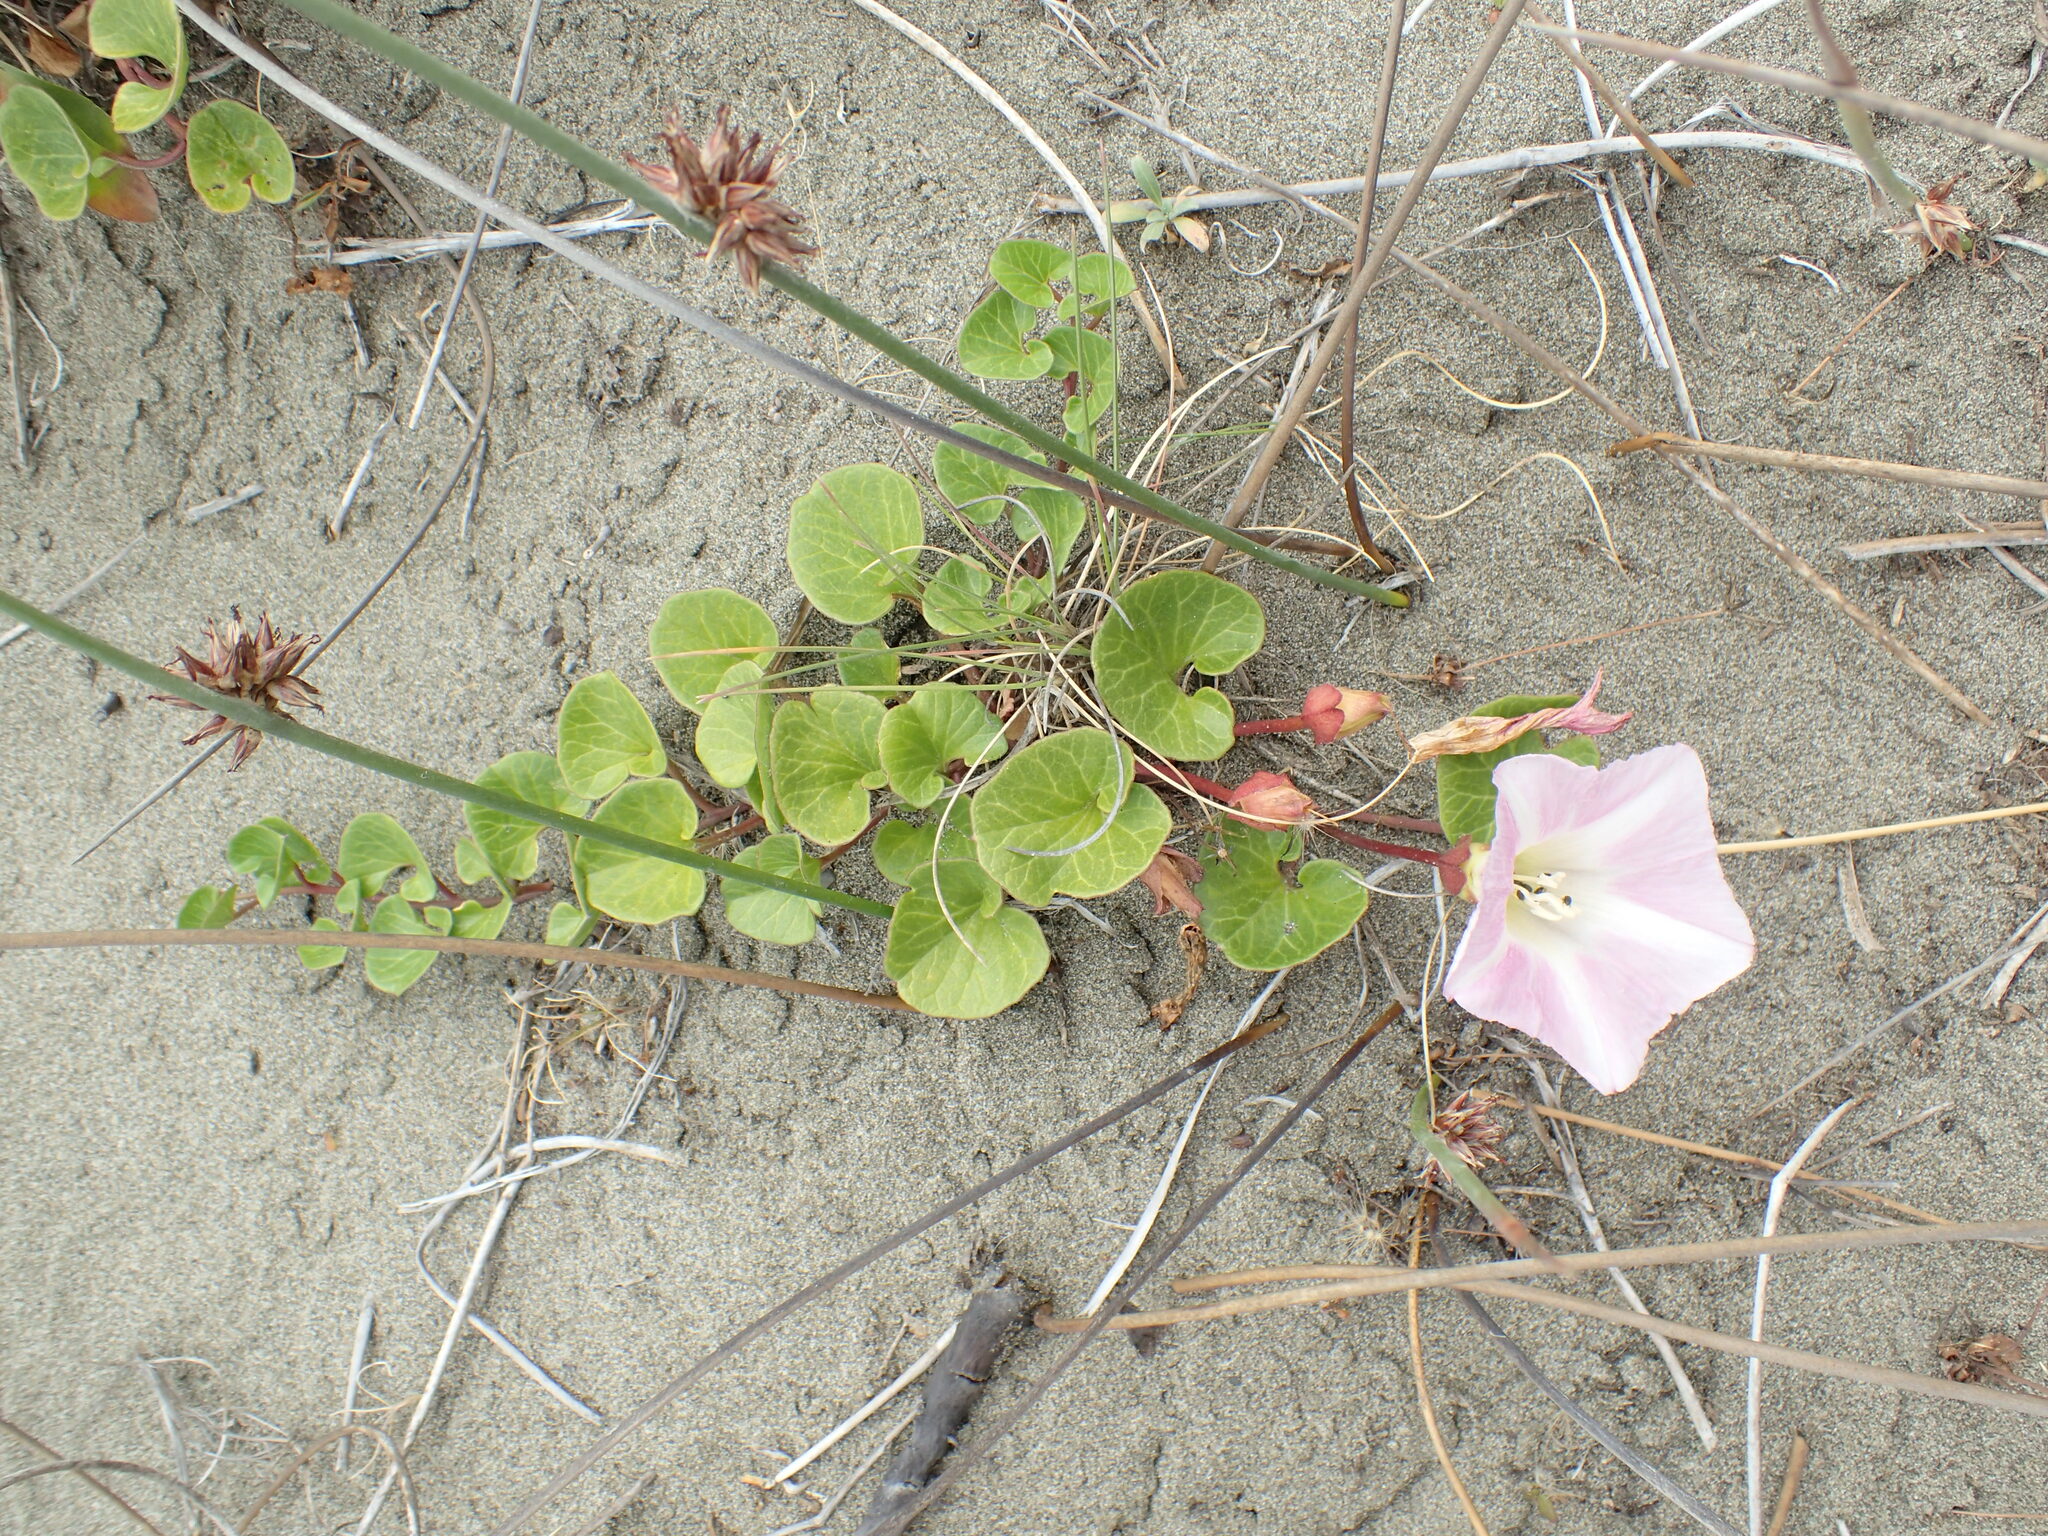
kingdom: Plantae
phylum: Tracheophyta
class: Magnoliopsida
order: Solanales
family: Convolvulaceae
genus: Calystegia
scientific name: Calystegia soldanella
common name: Sea bindweed
